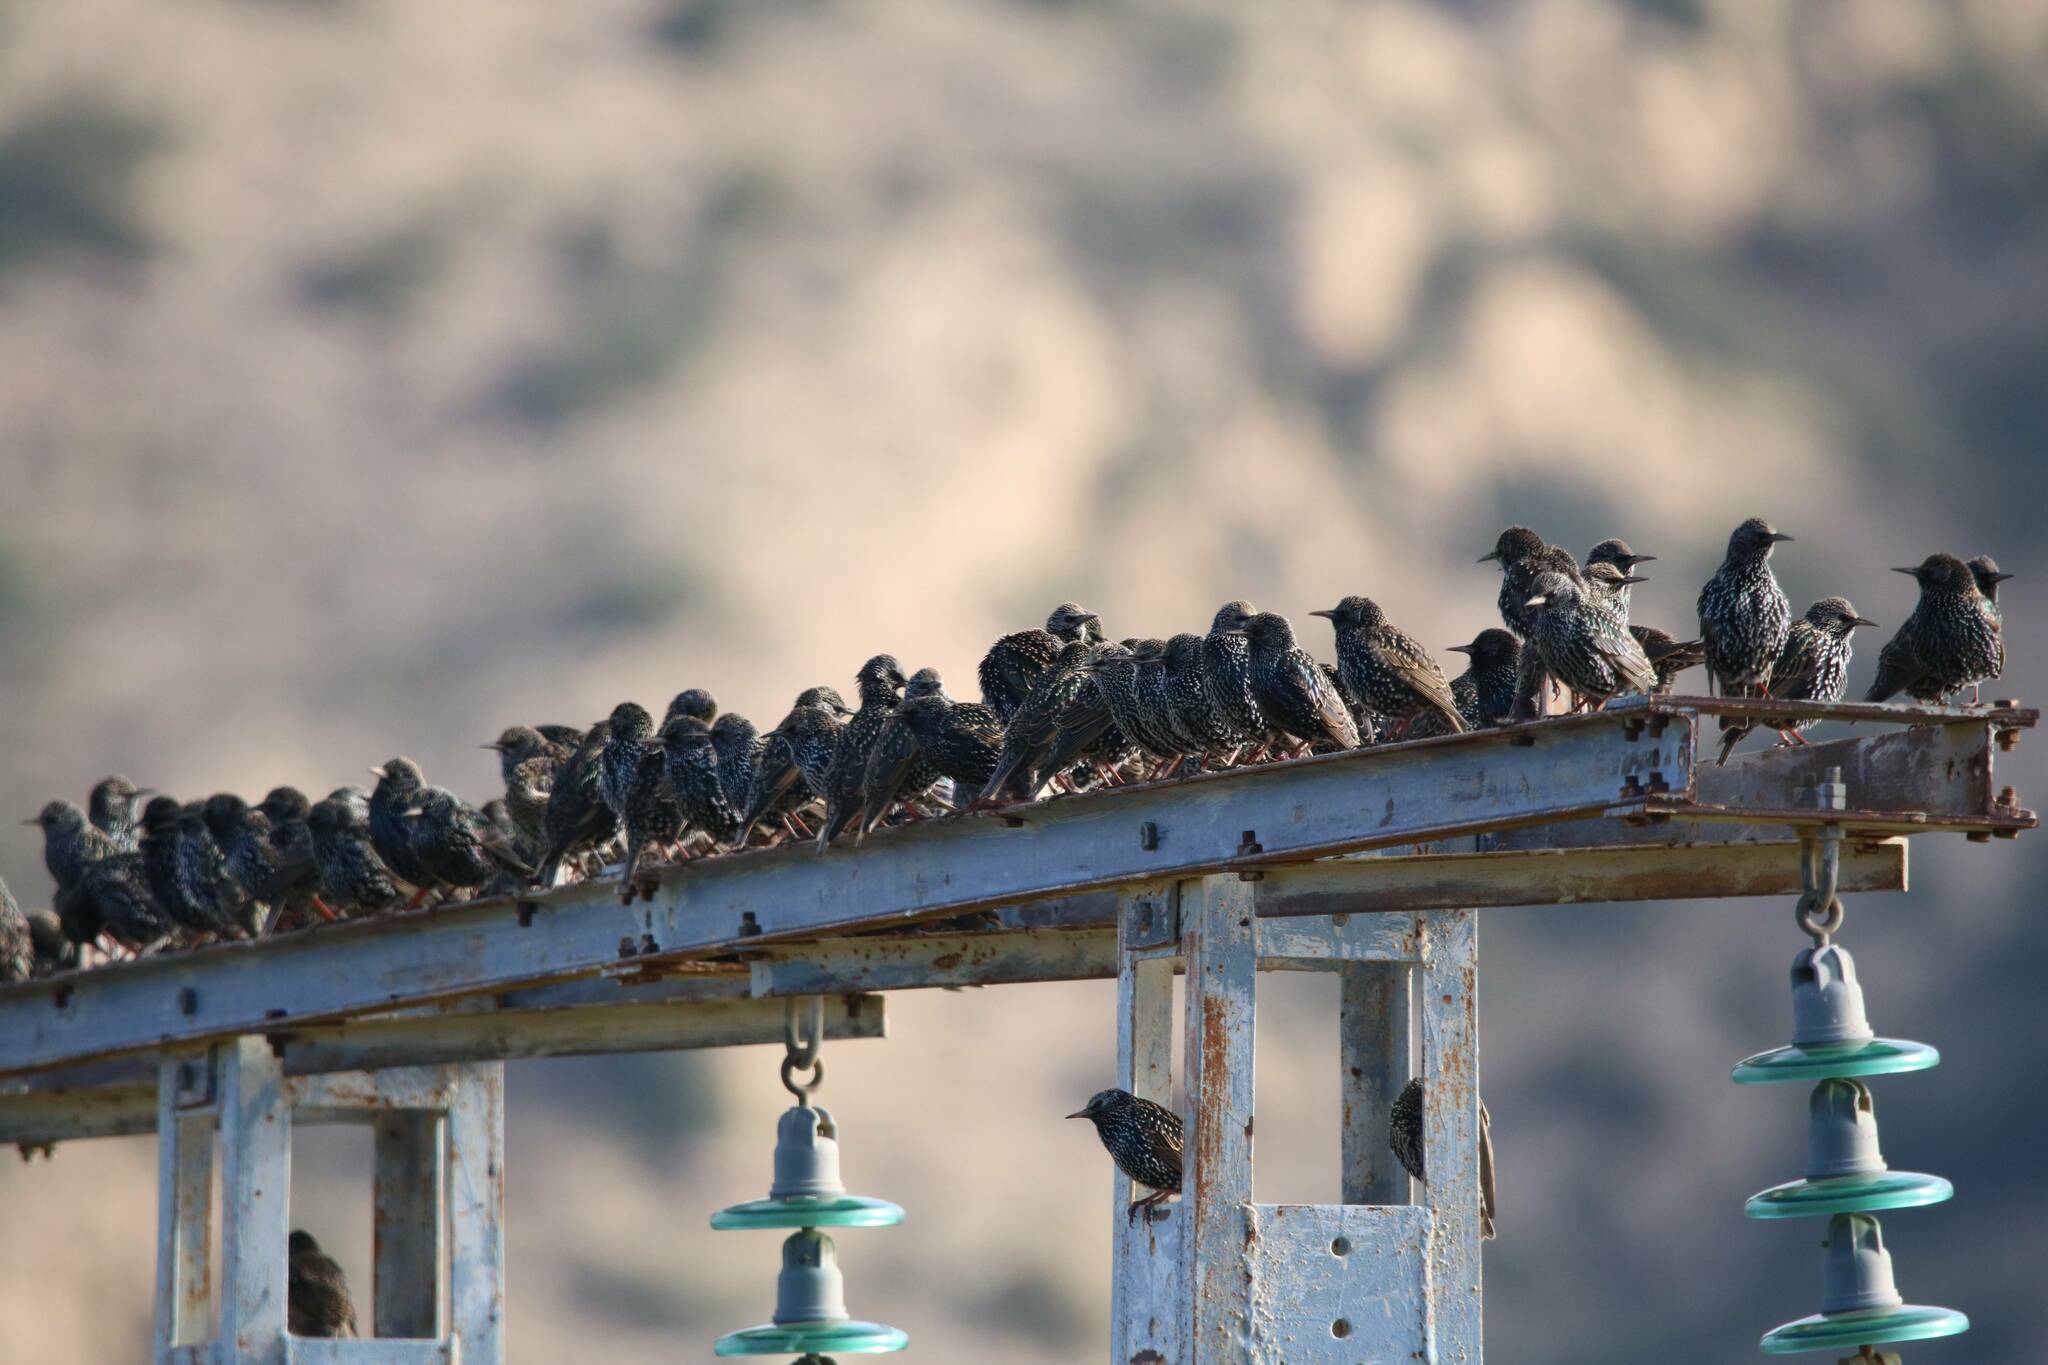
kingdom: Animalia
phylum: Chordata
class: Aves
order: Passeriformes
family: Sturnidae
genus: Sturnus
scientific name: Sturnus vulgaris
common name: Common starling
